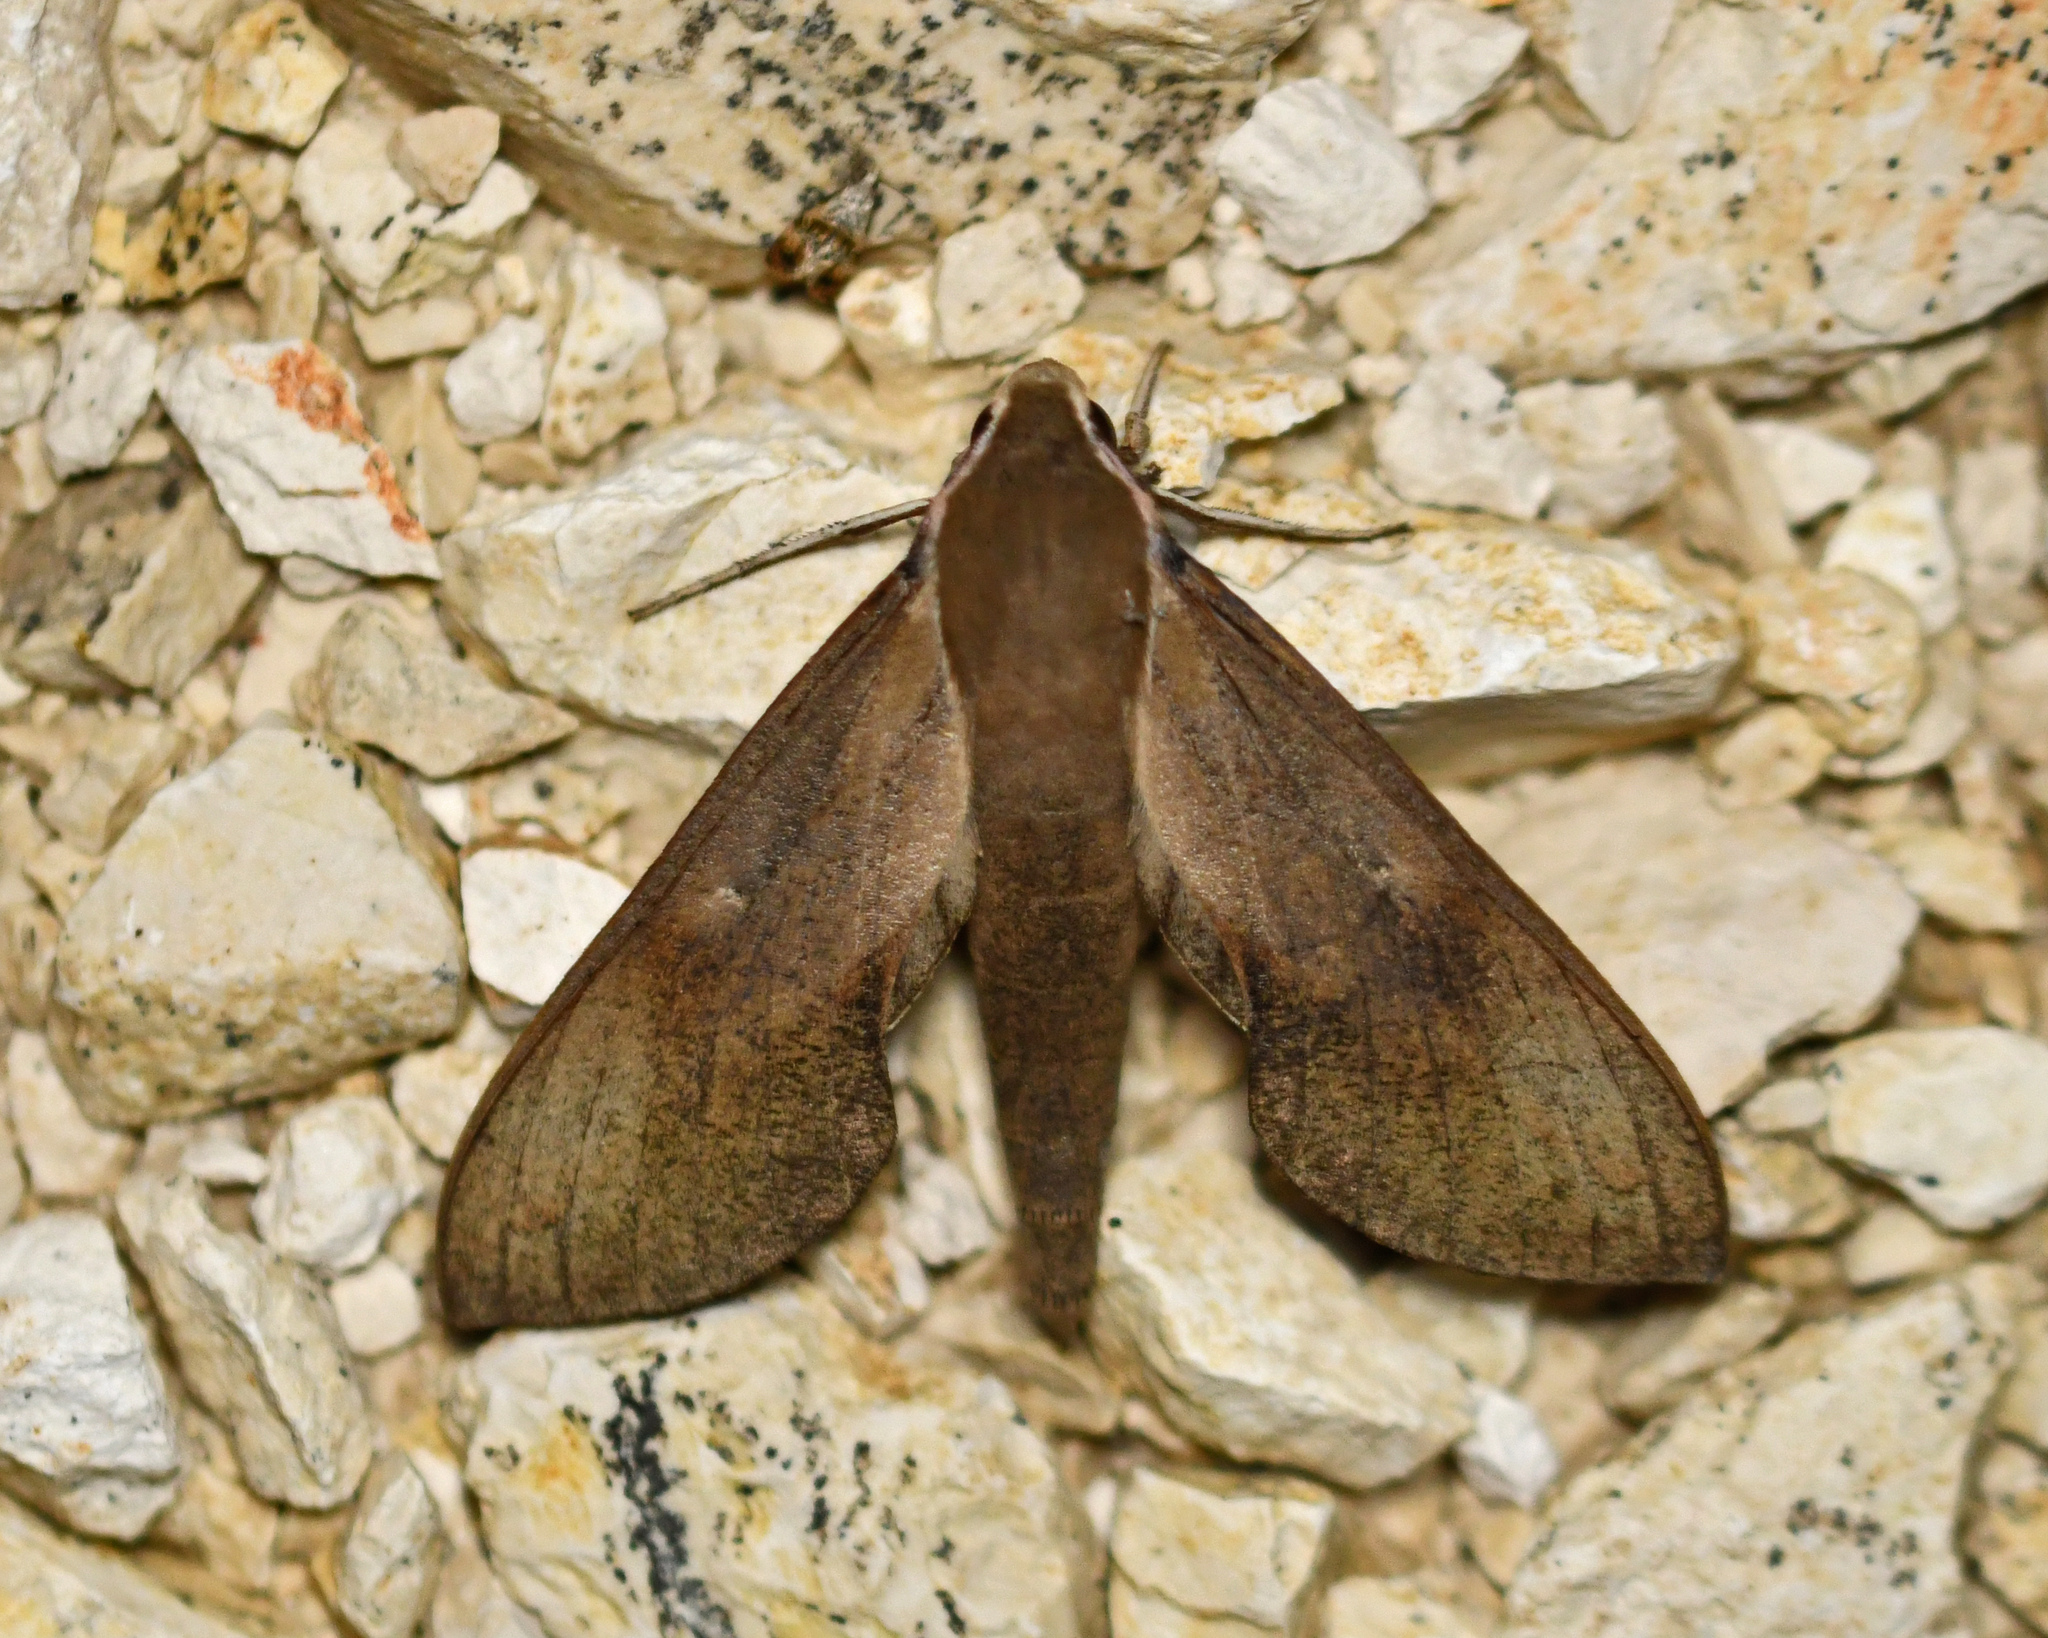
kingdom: Animalia
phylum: Arthropoda
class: Insecta
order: Lepidoptera
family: Sphingidae
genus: Xylophanes
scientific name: Xylophanes rhodocera
